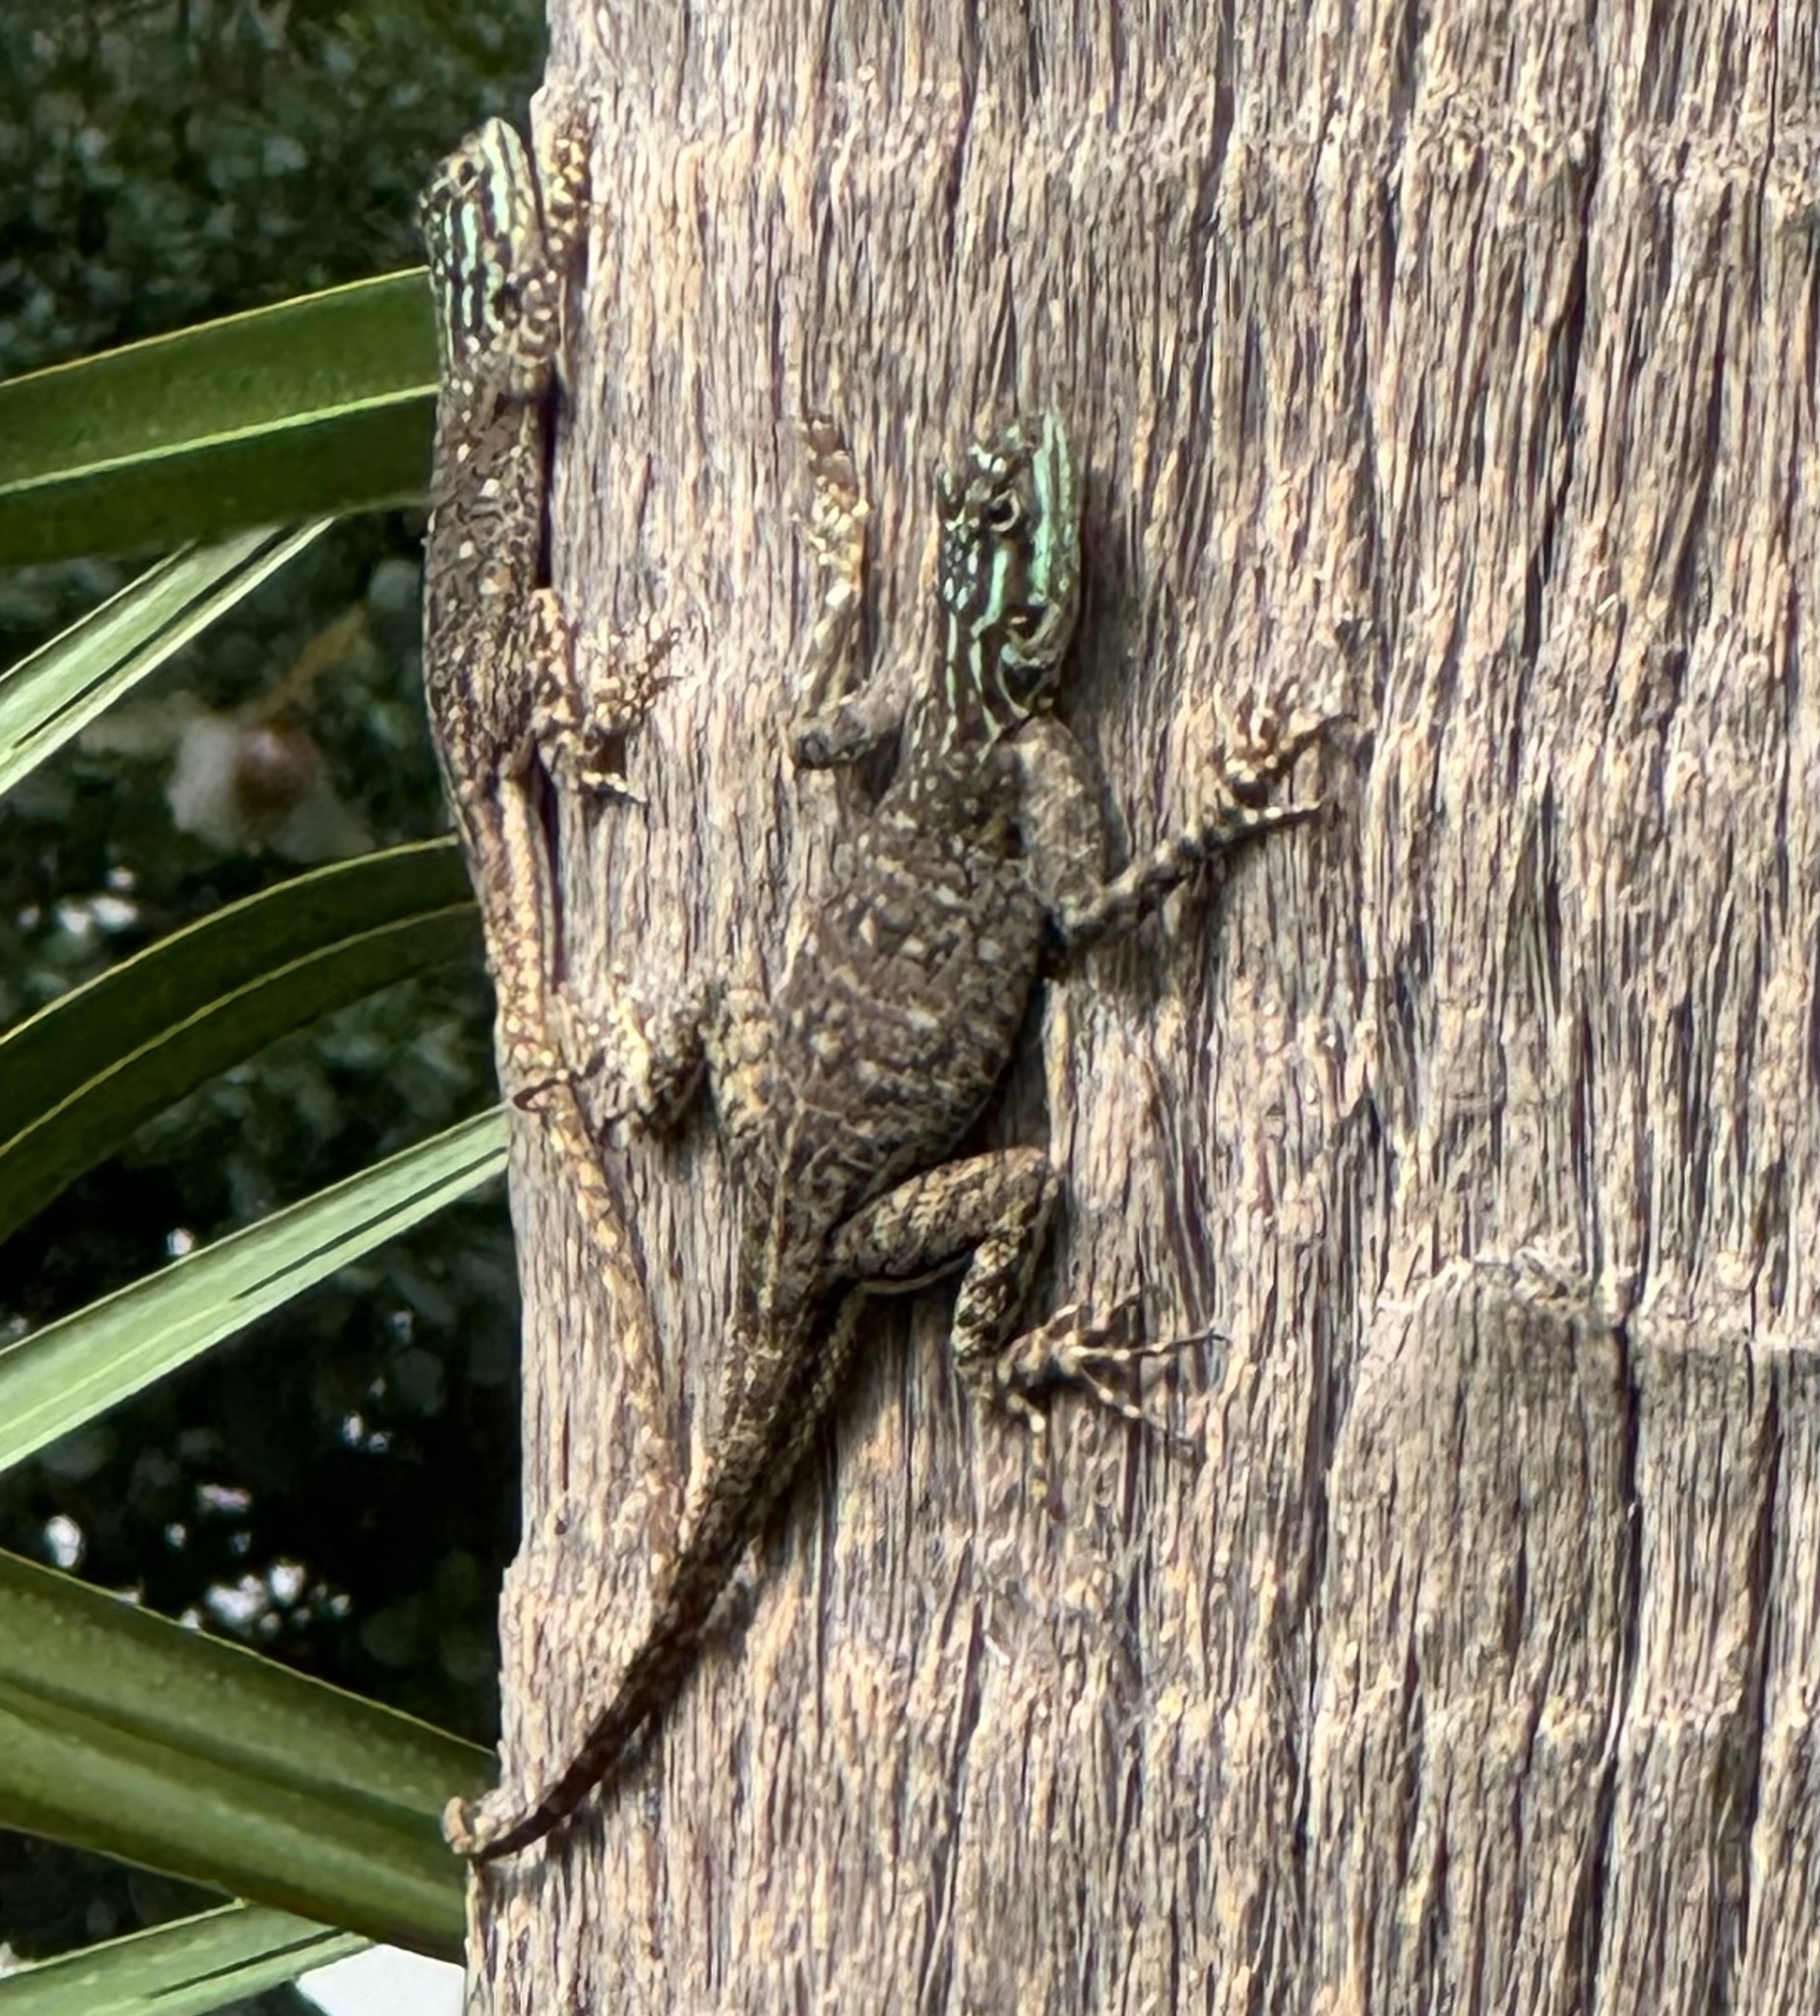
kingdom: Animalia
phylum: Chordata
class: Squamata
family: Agamidae
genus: Agama
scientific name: Agama picticauda
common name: Red-headed agama
